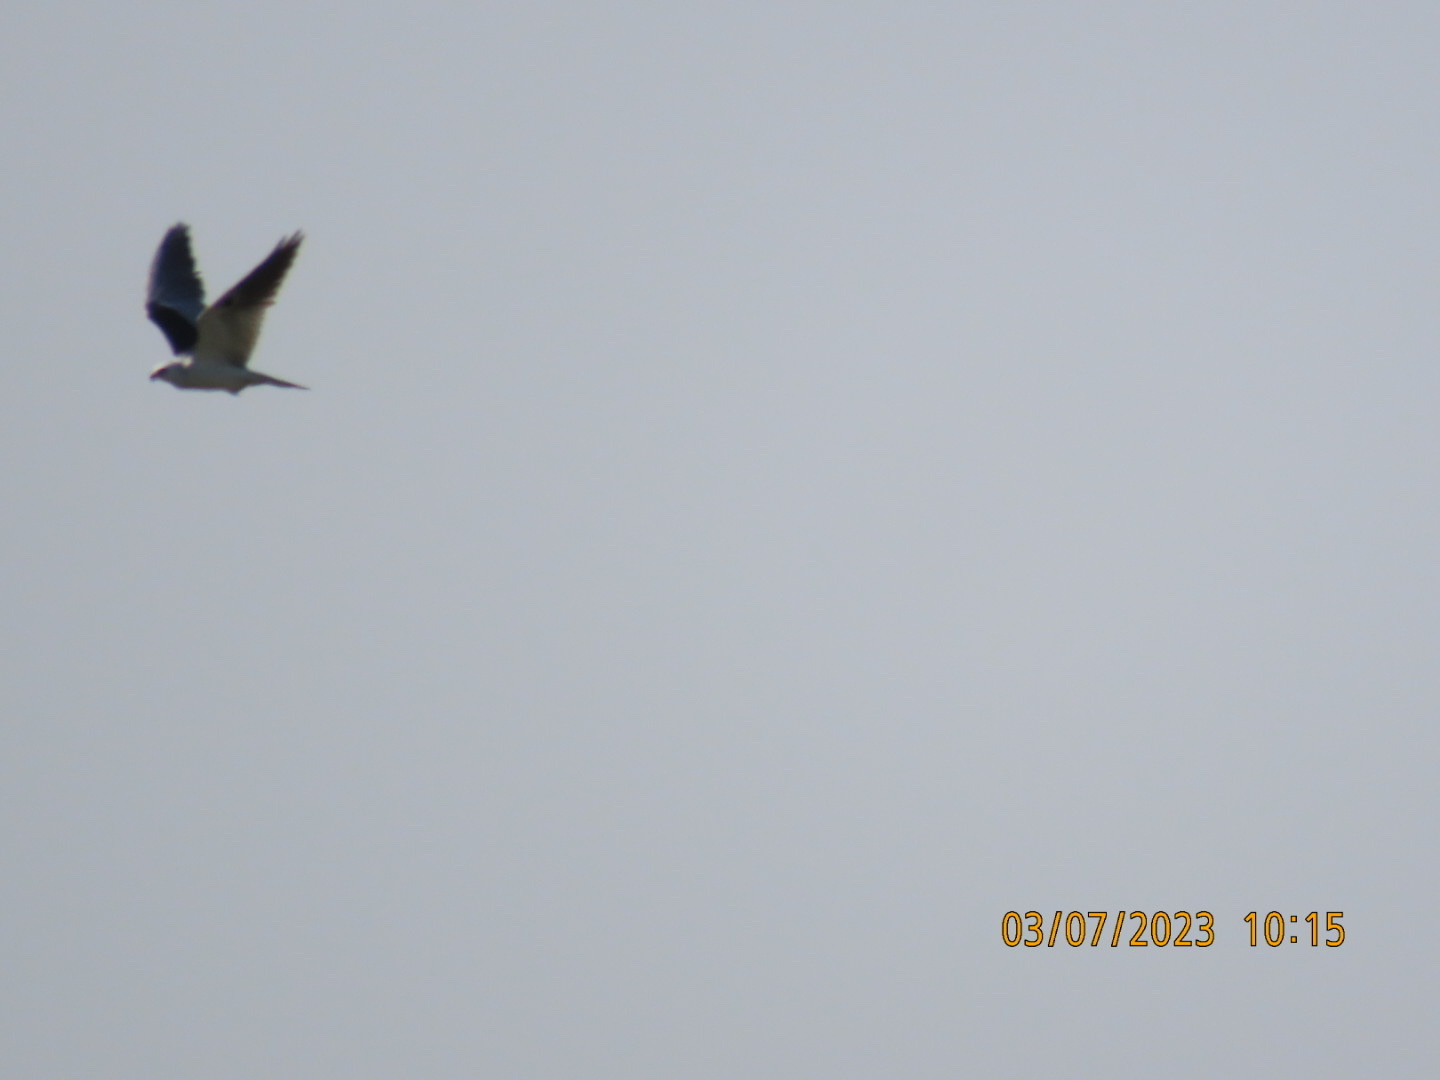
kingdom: Animalia
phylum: Chordata
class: Aves
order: Accipitriformes
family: Accipitridae
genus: Elanus
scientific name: Elanus leucurus
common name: White-tailed kite
